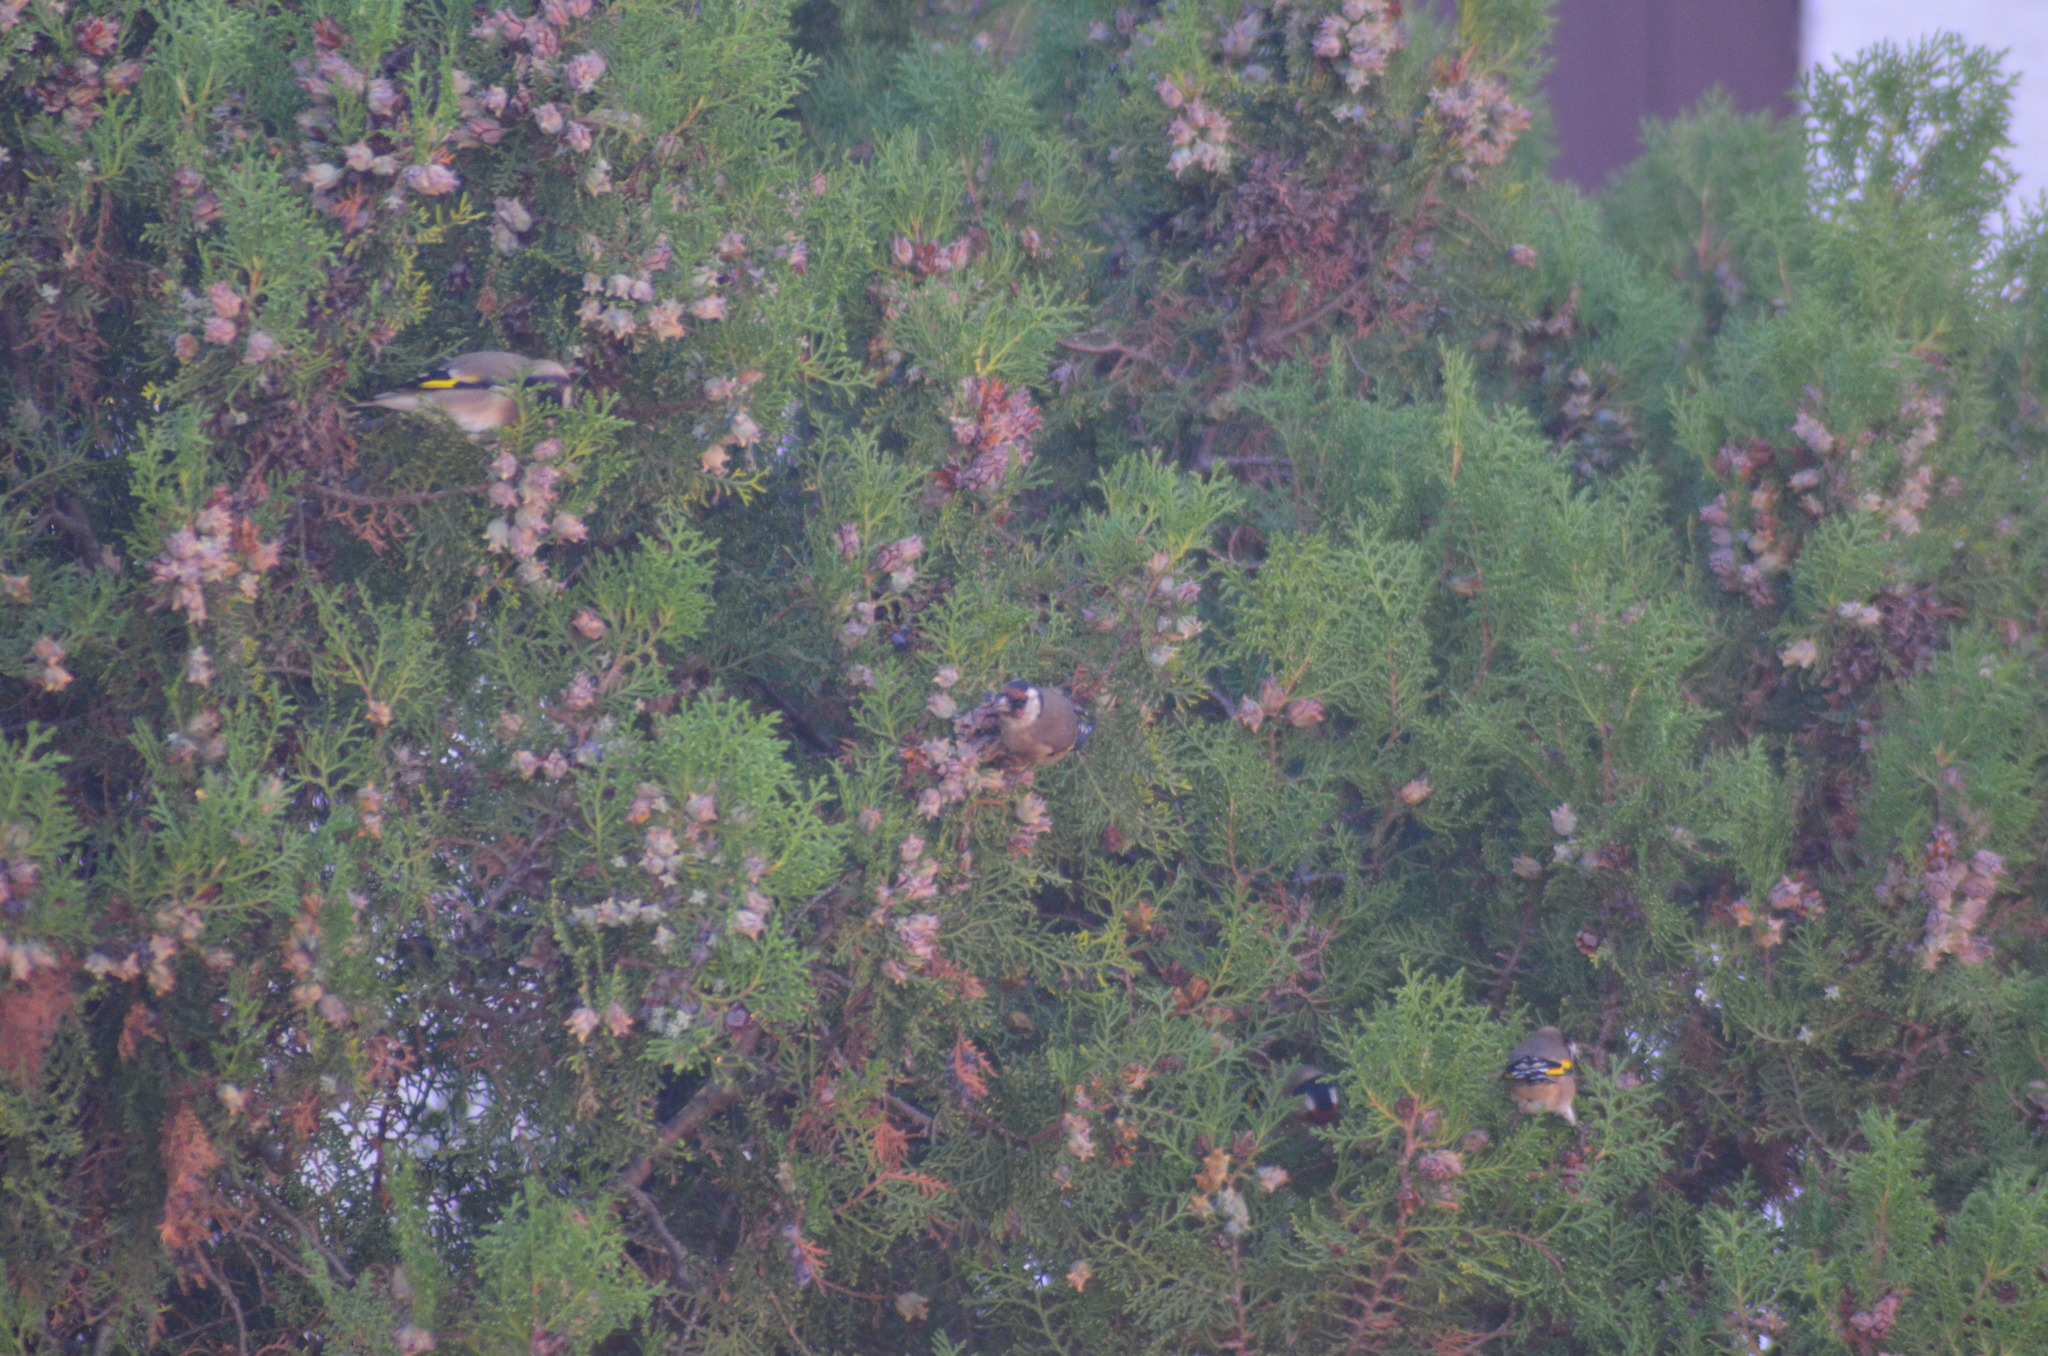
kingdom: Animalia
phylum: Chordata
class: Aves
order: Passeriformes
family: Fringillidae
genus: Carduelis
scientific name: Carduelis carduelis
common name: European goldfinch
